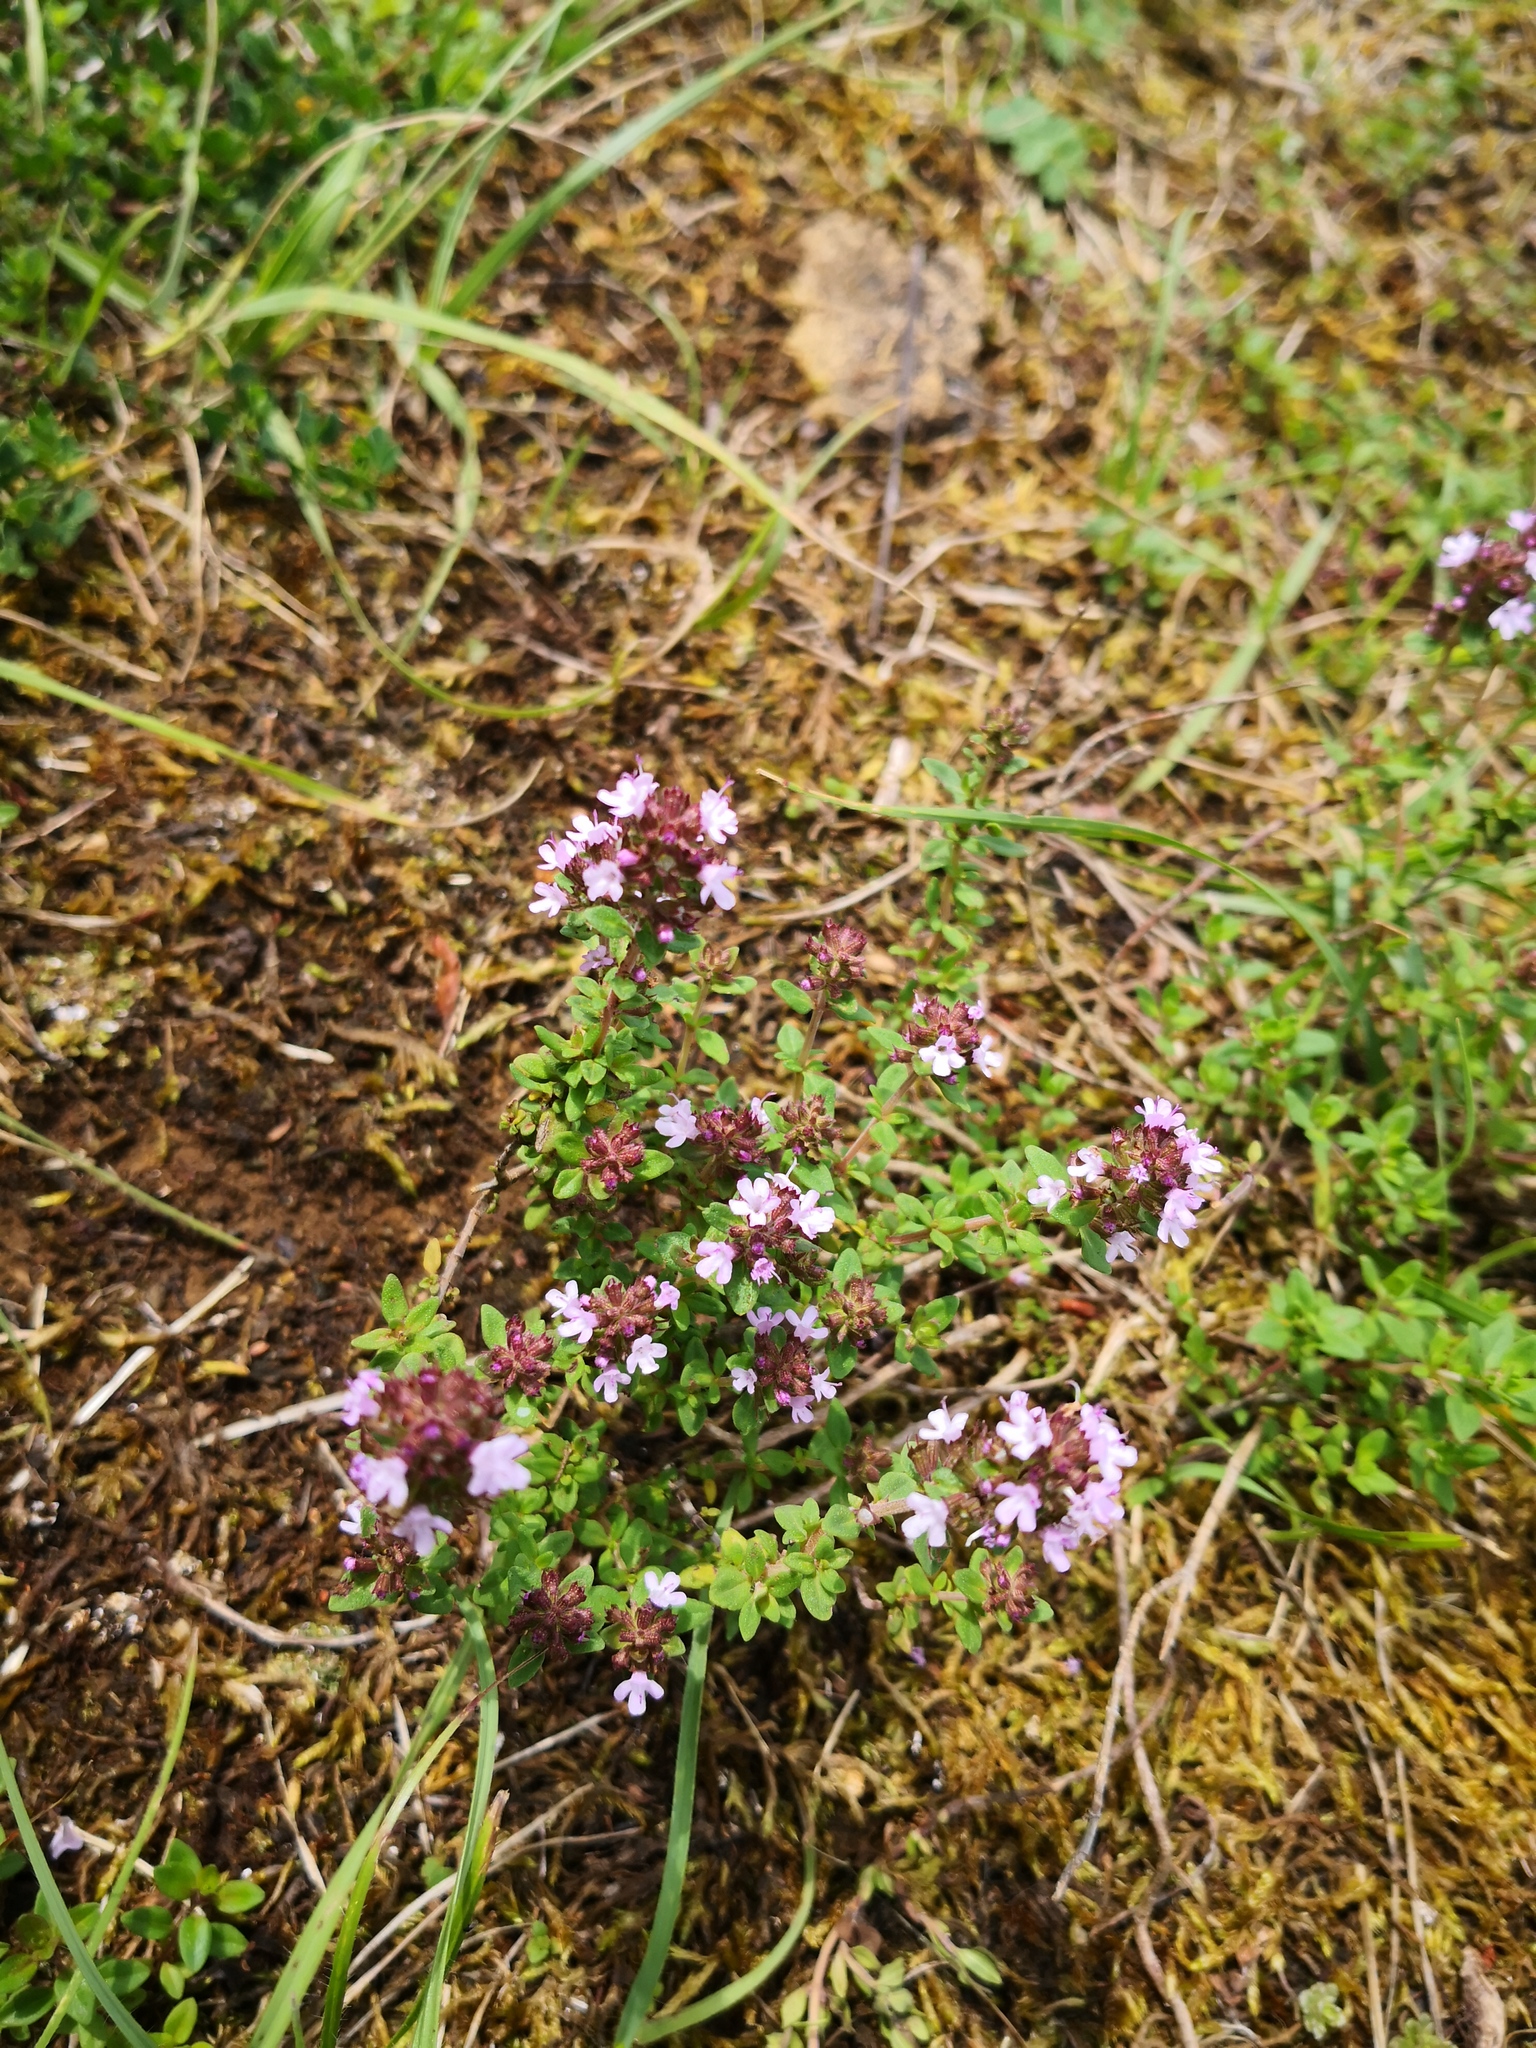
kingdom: Plantae
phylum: Tracheophyta
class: Magnoliopsida
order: Lamiales
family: Lamiaceae
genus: Thymus
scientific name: Thymus pulegioides
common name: Large thyme
